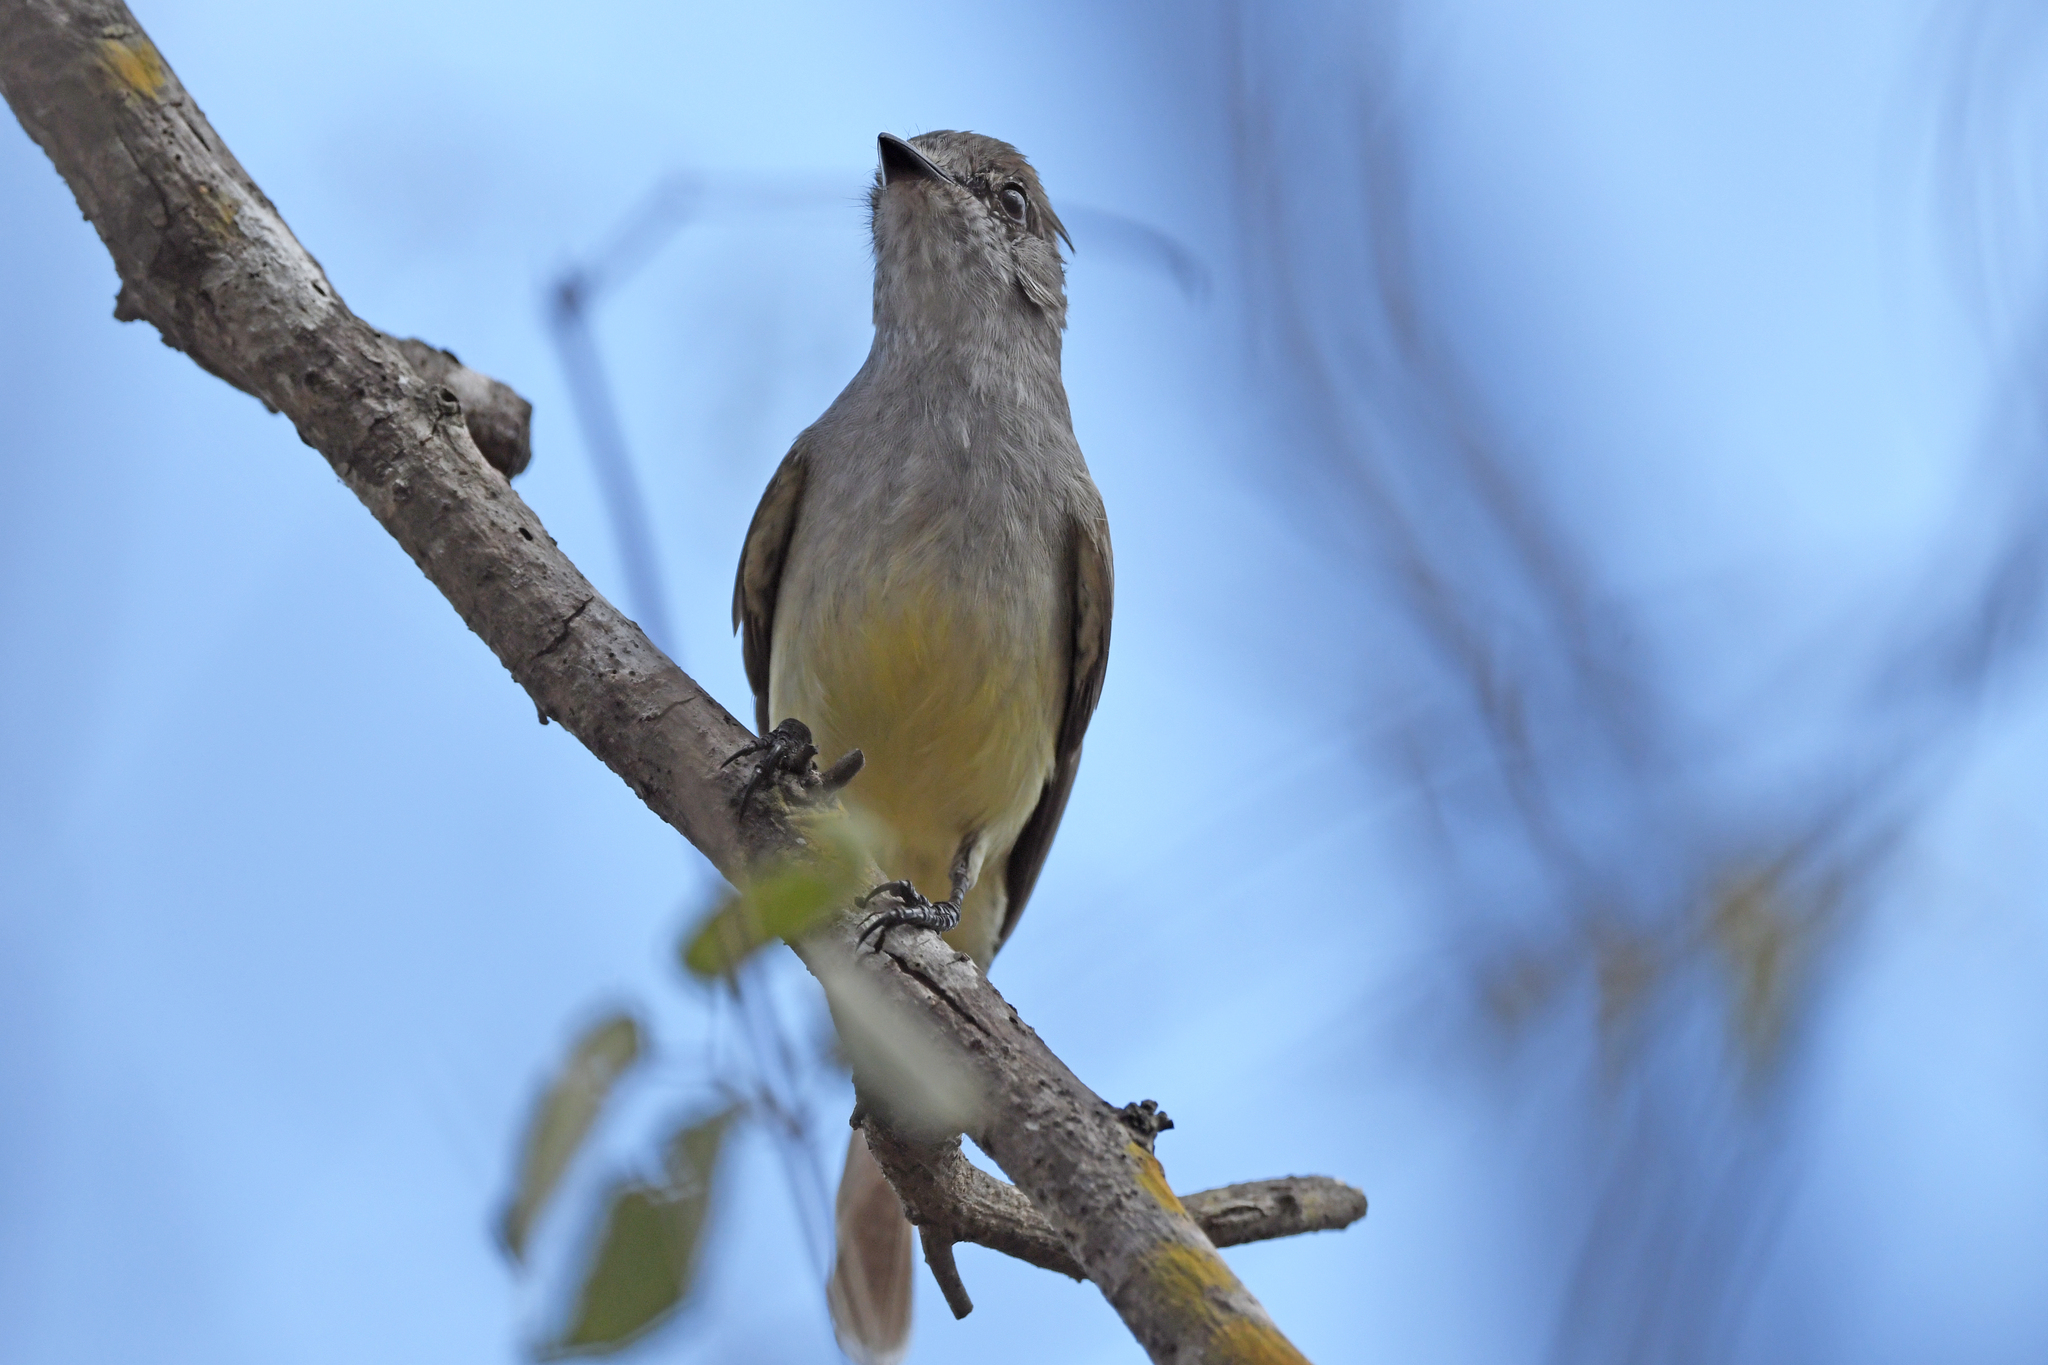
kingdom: Animalia
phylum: Chordata
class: Aves
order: Passeriformes
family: Tyrannidae
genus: Sublegatus
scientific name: Sublegatus arenarum
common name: Northern scrub-flycatcher
